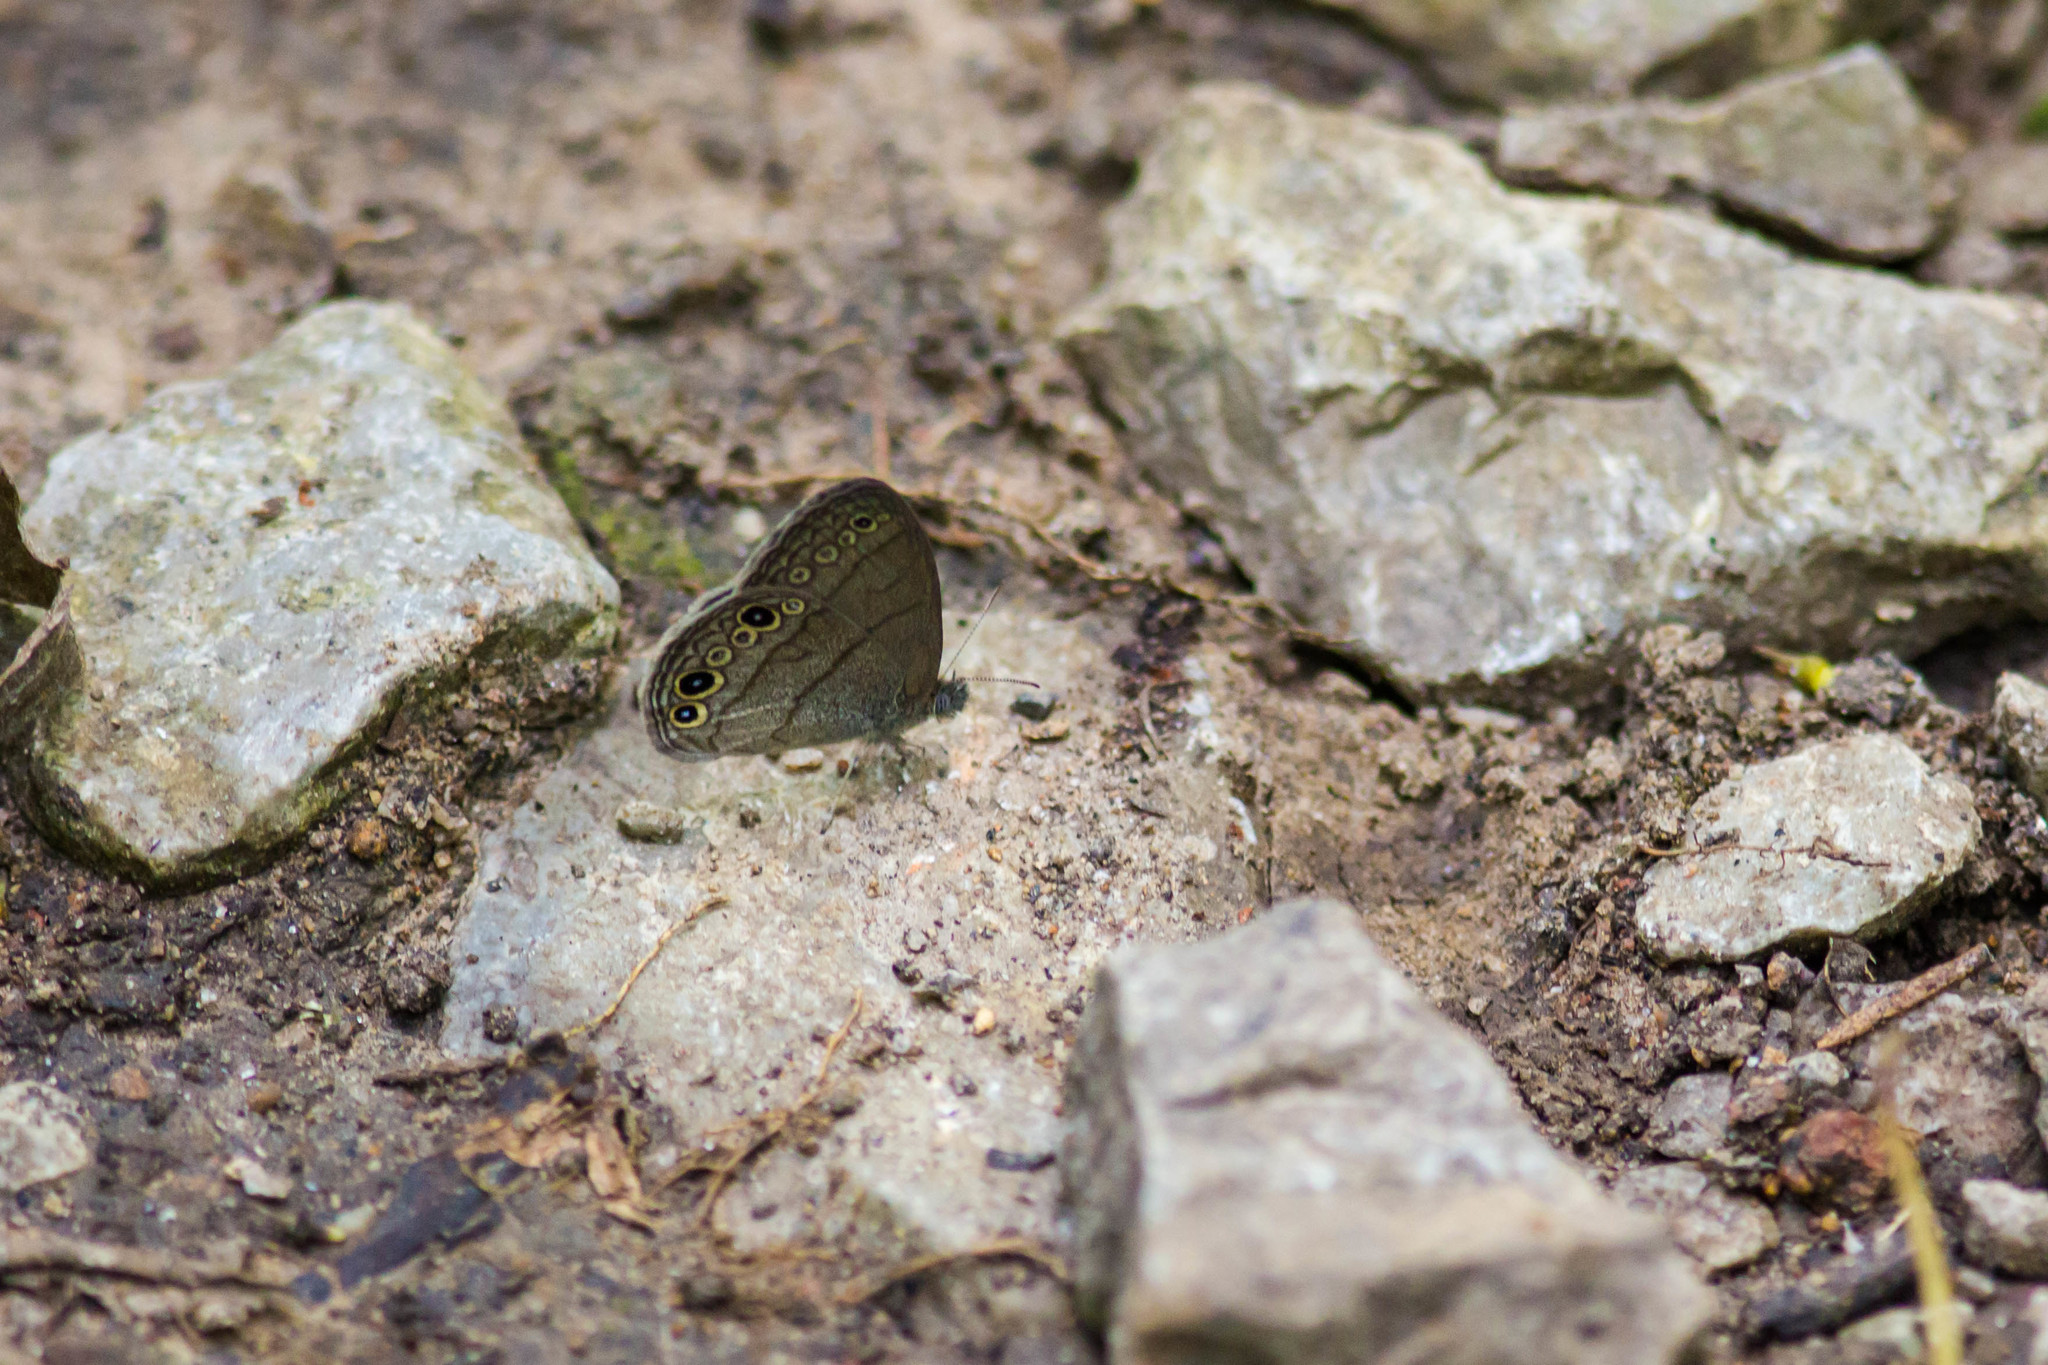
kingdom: Animalia
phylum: Arthropoda
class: Insecta
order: Lepidoptera
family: Nymphalidae
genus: Hermeuptychia
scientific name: Hermeuptychia hermes
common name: Hermes satyr
